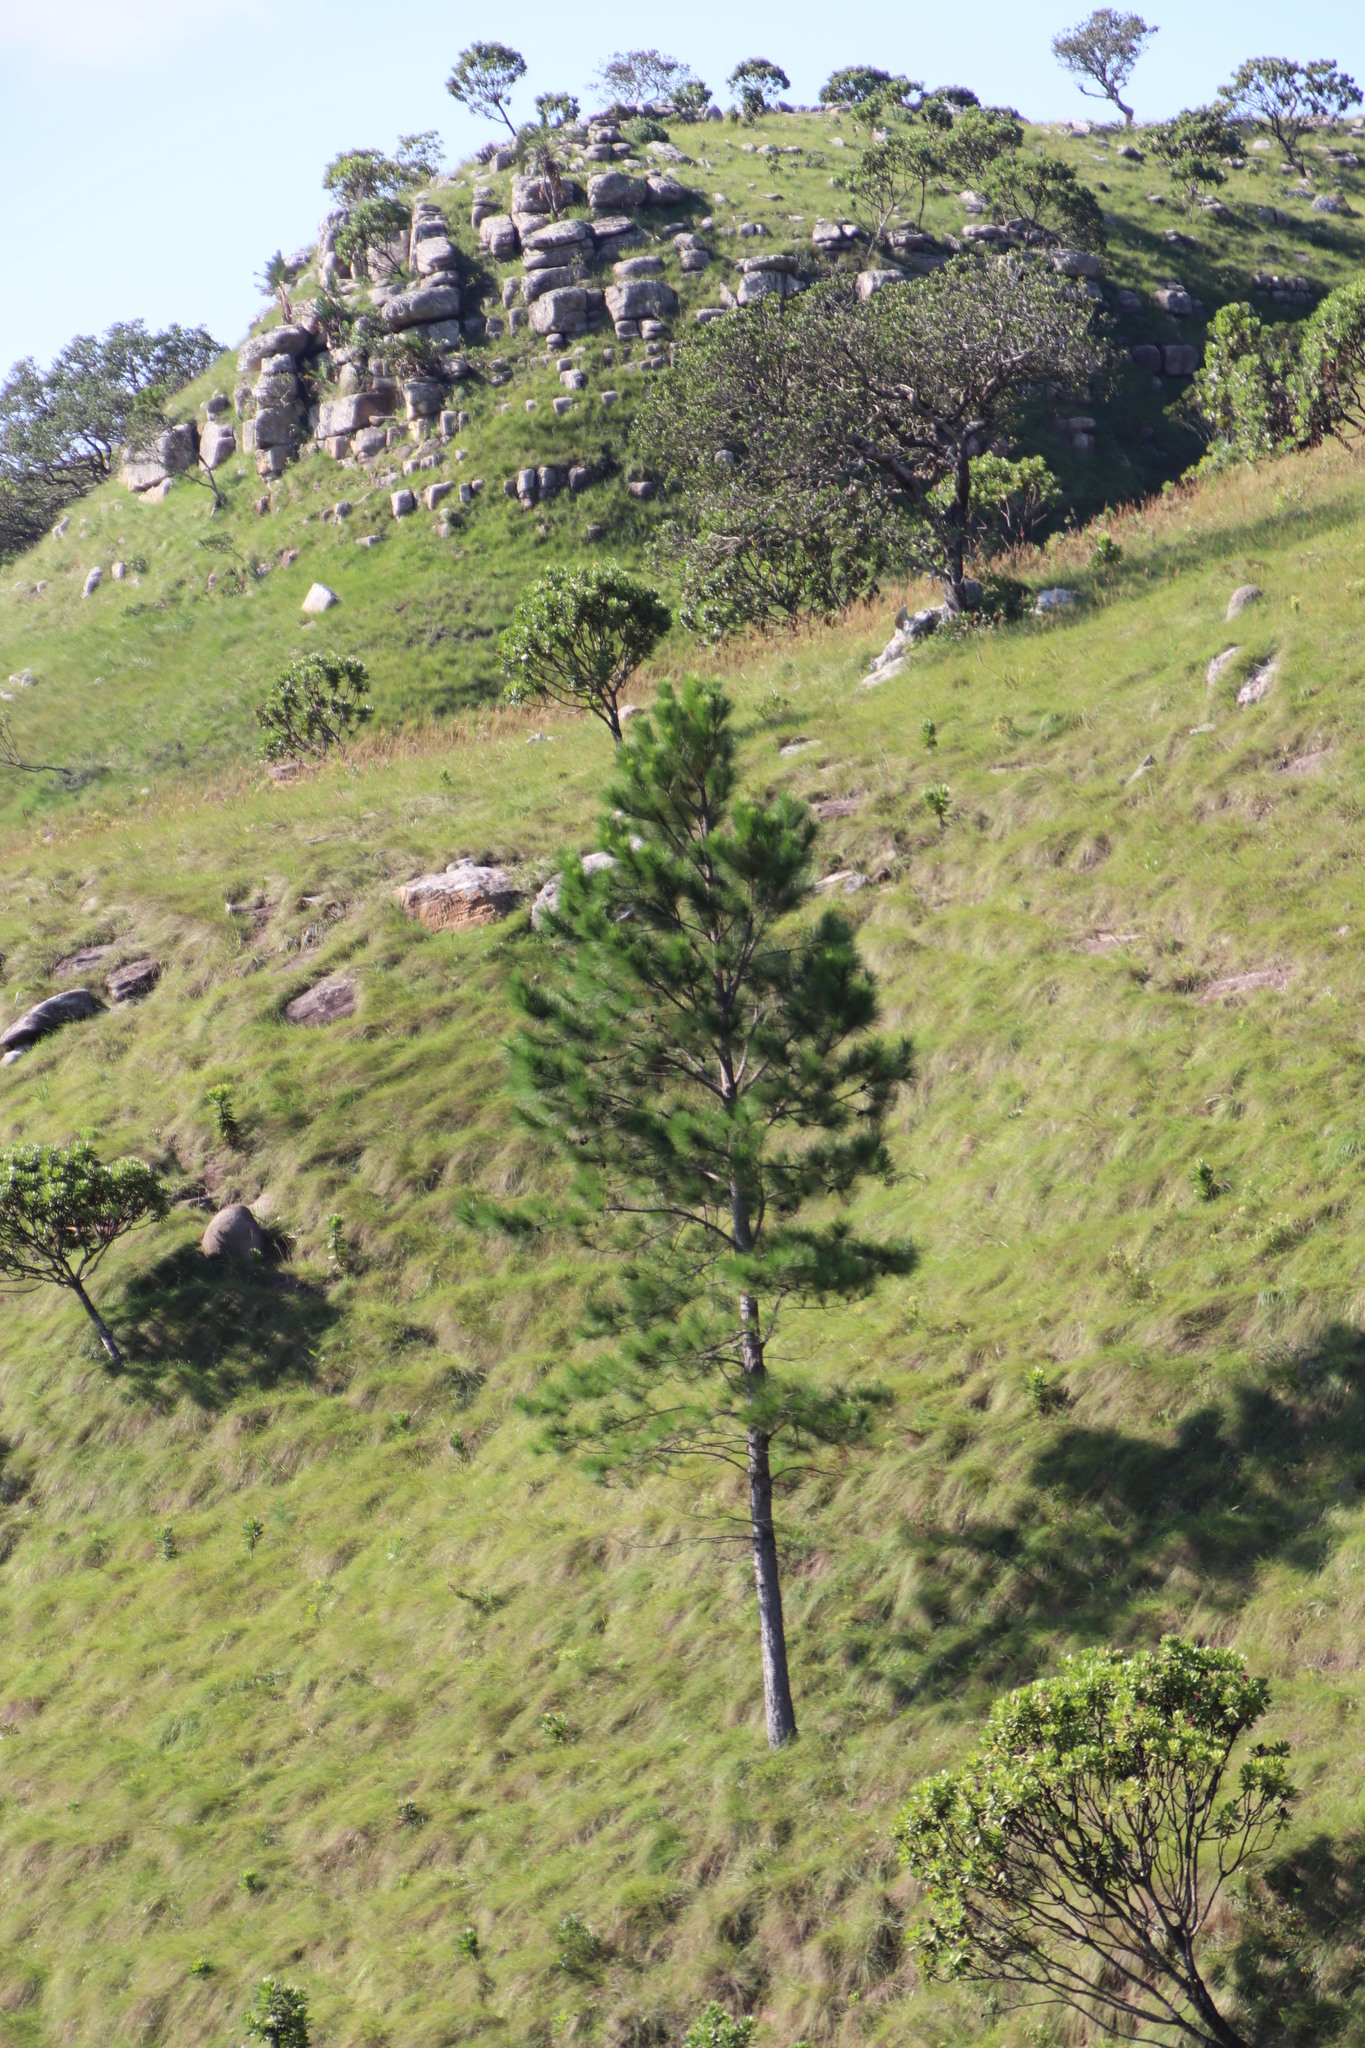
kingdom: Plantae
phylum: Tracheophyta
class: Pinopsida
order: Pinales
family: Pinaceae
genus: Pinus
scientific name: Pinus elliottii
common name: Slash pine
